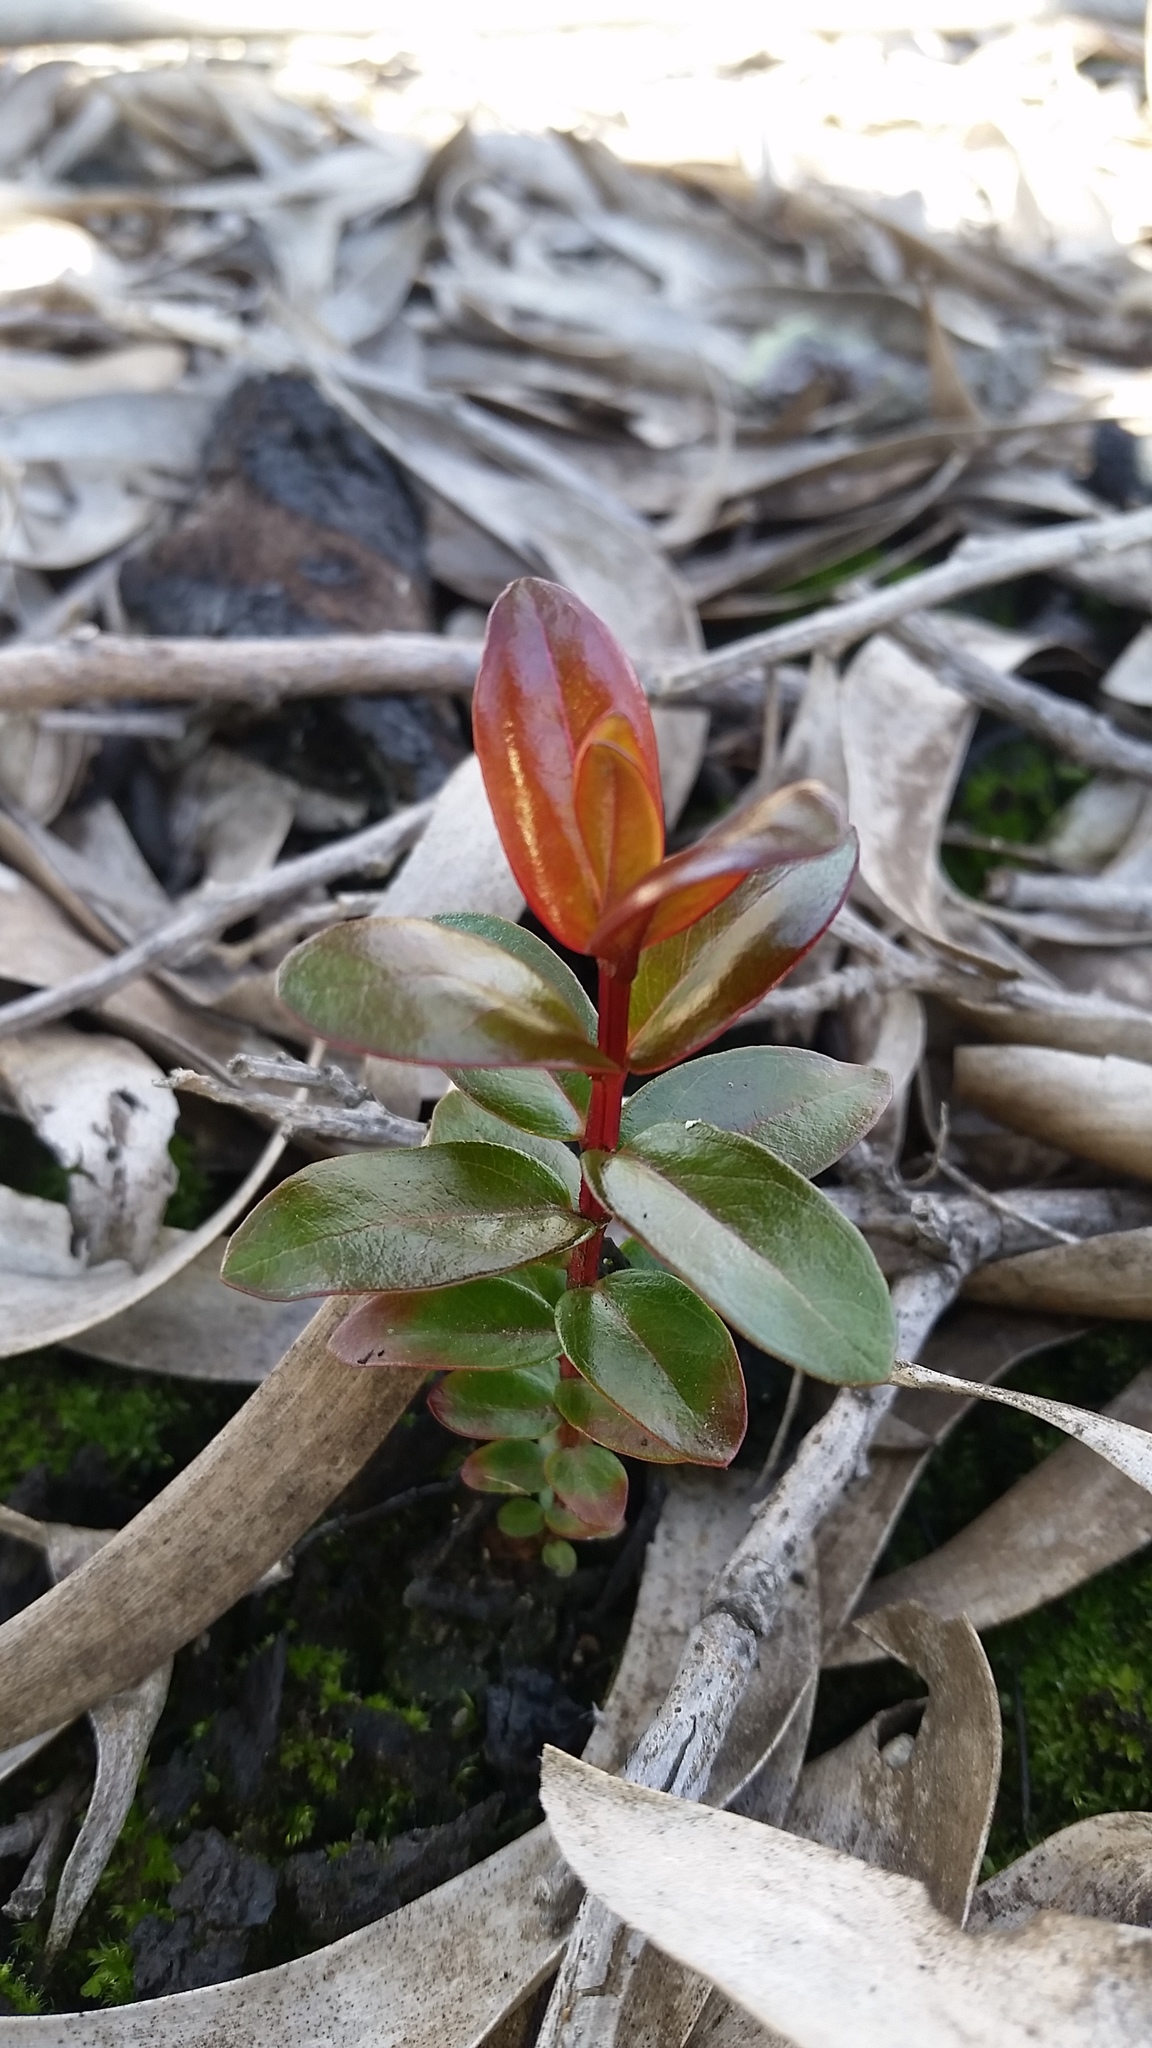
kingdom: Plantae
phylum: Tracheophyta
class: Magnoliopsida
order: Myrtales
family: Myrtaceae
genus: Metrosideros
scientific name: Metrosideros polymorpha
